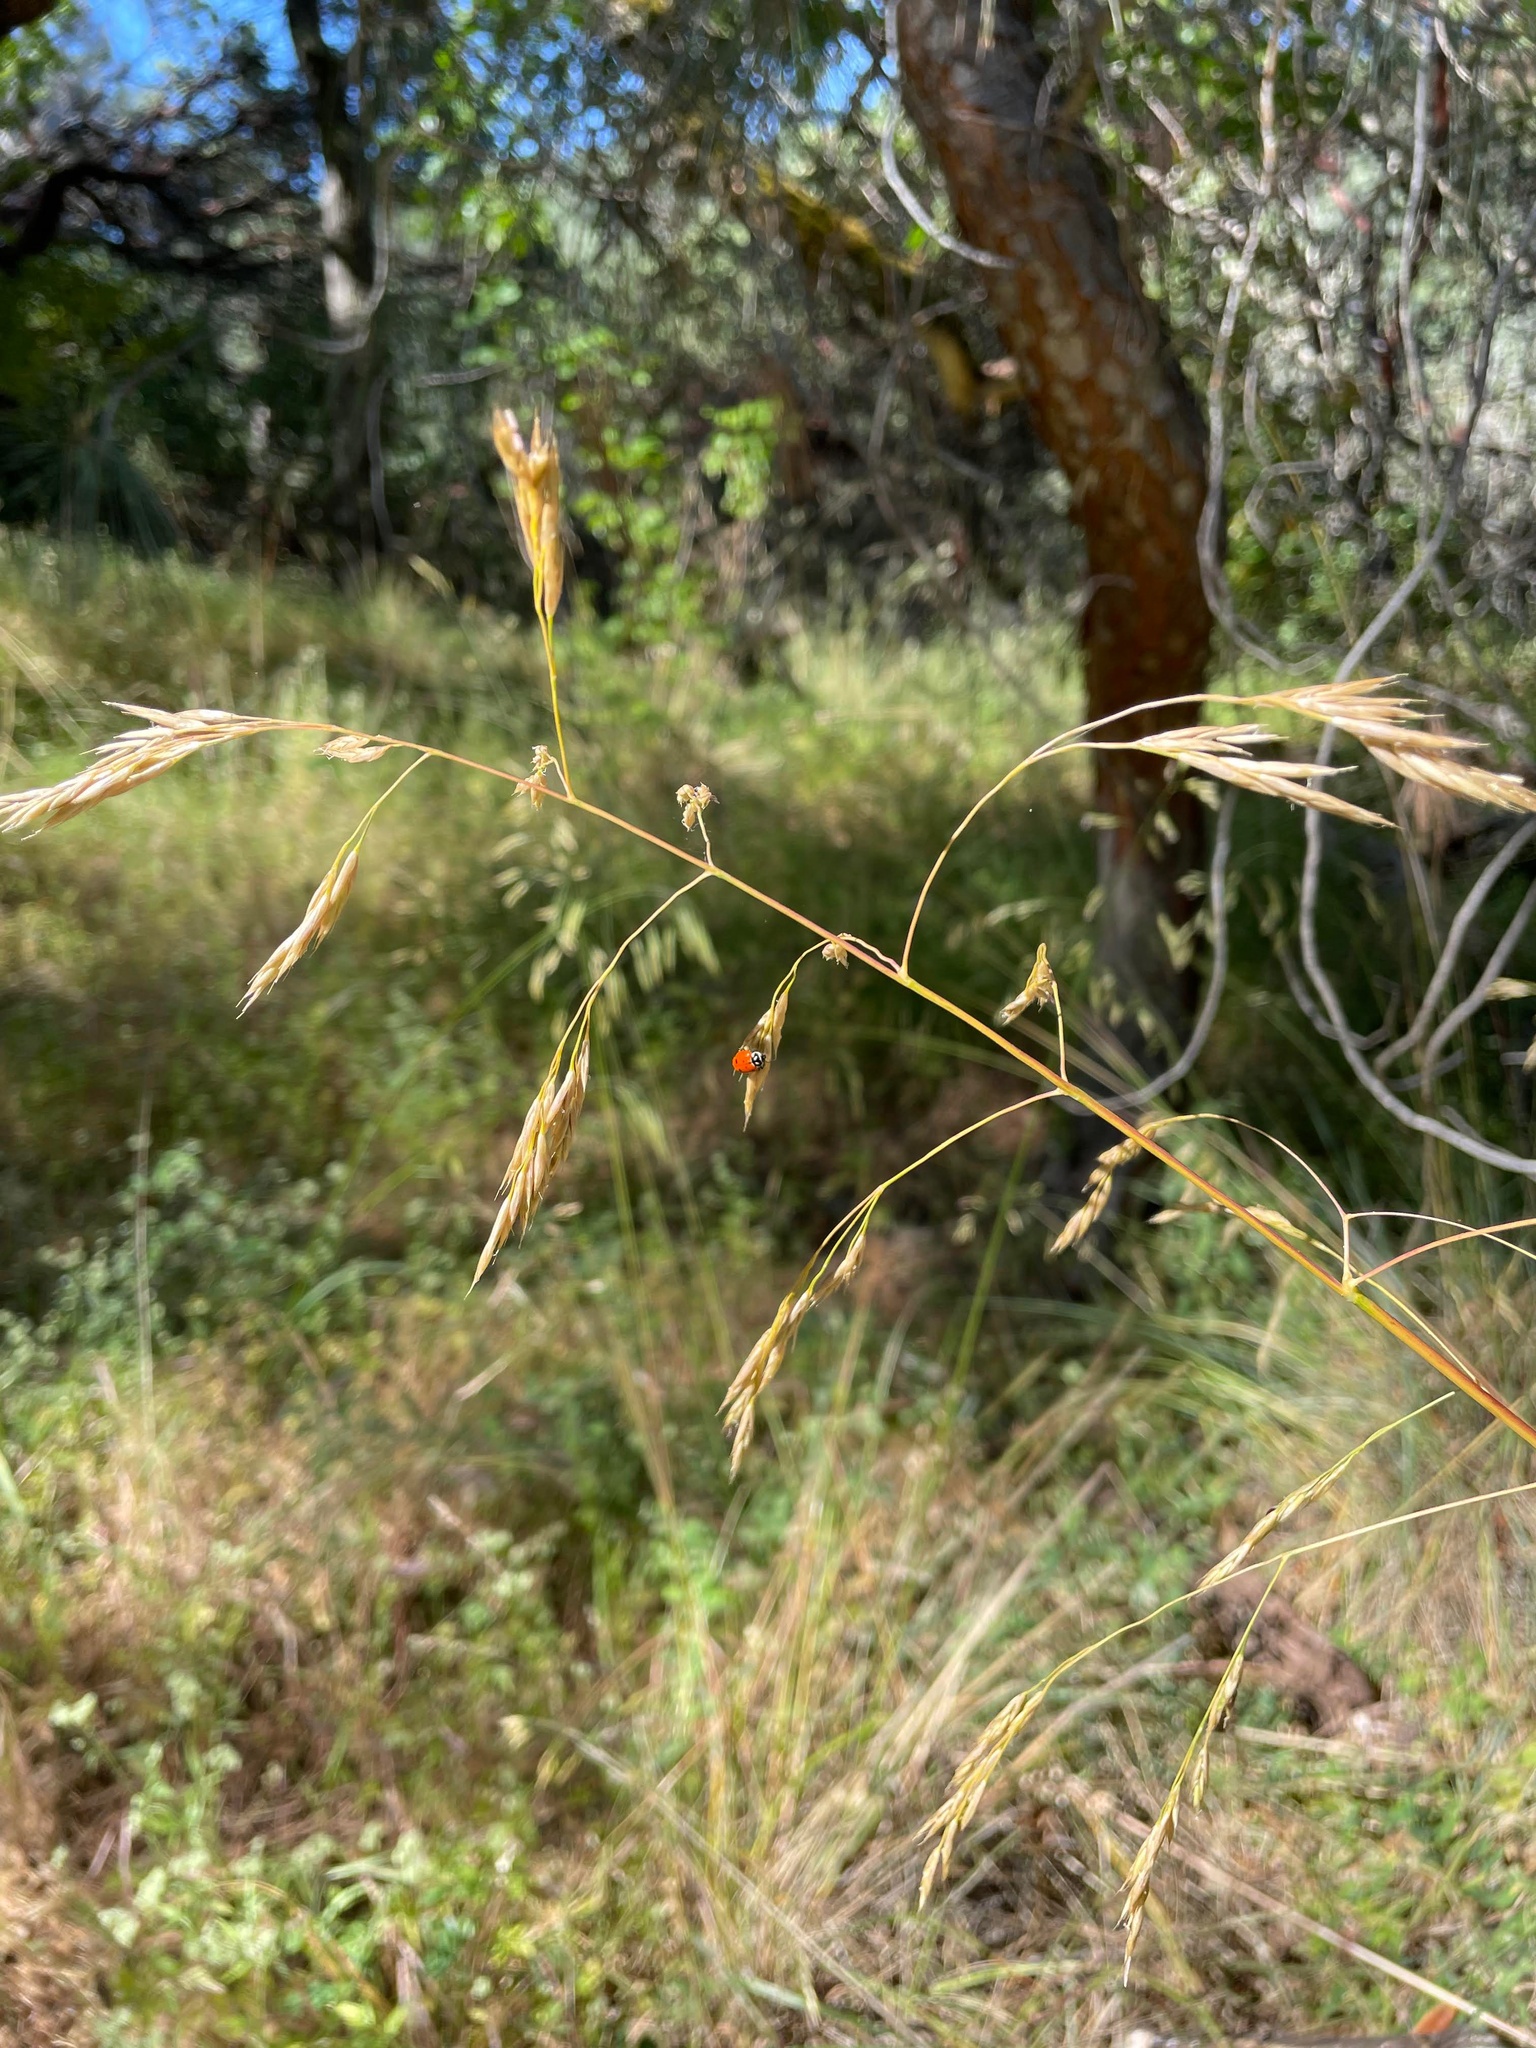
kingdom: Animalia
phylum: Arthropoda
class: Insecta
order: Coleoptera
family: Coccinellidae
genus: Hippodamia
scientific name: Hippodamia convergens
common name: Convergent lady beetle
